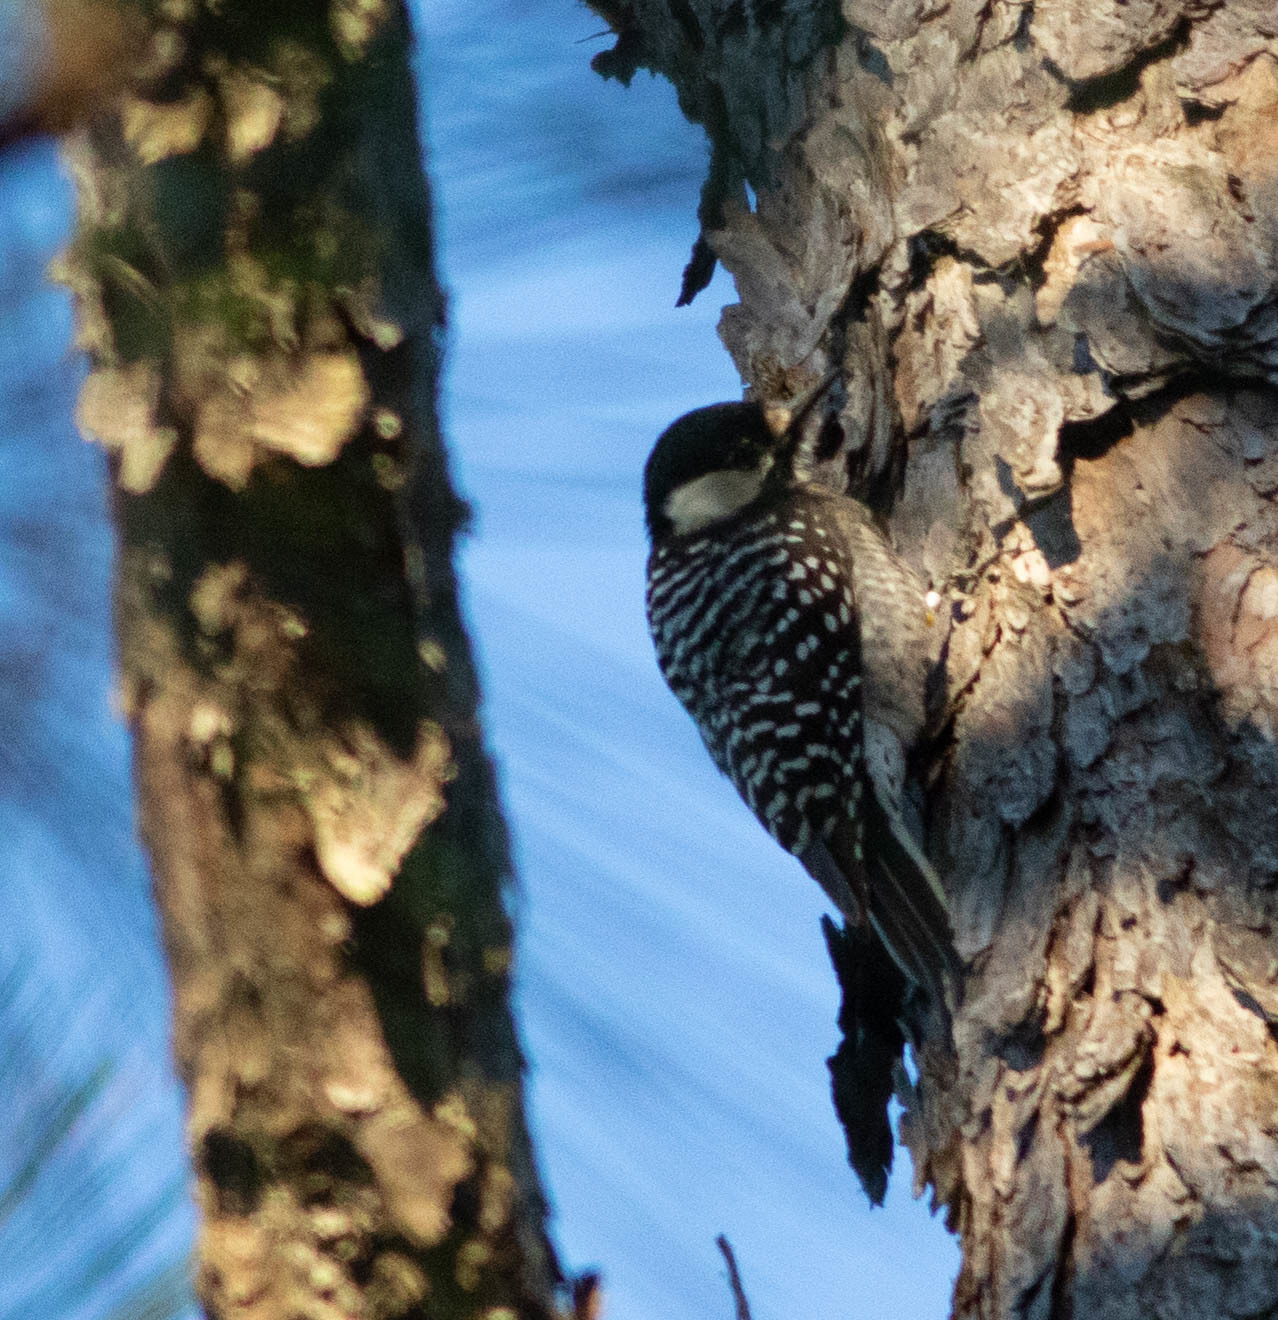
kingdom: Animalia
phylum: Chordata
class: Aves
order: Piciformes
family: Picidae
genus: Leuconotopicus
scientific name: Leuconotopicus borealis
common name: Red-cockaded woodpecker
